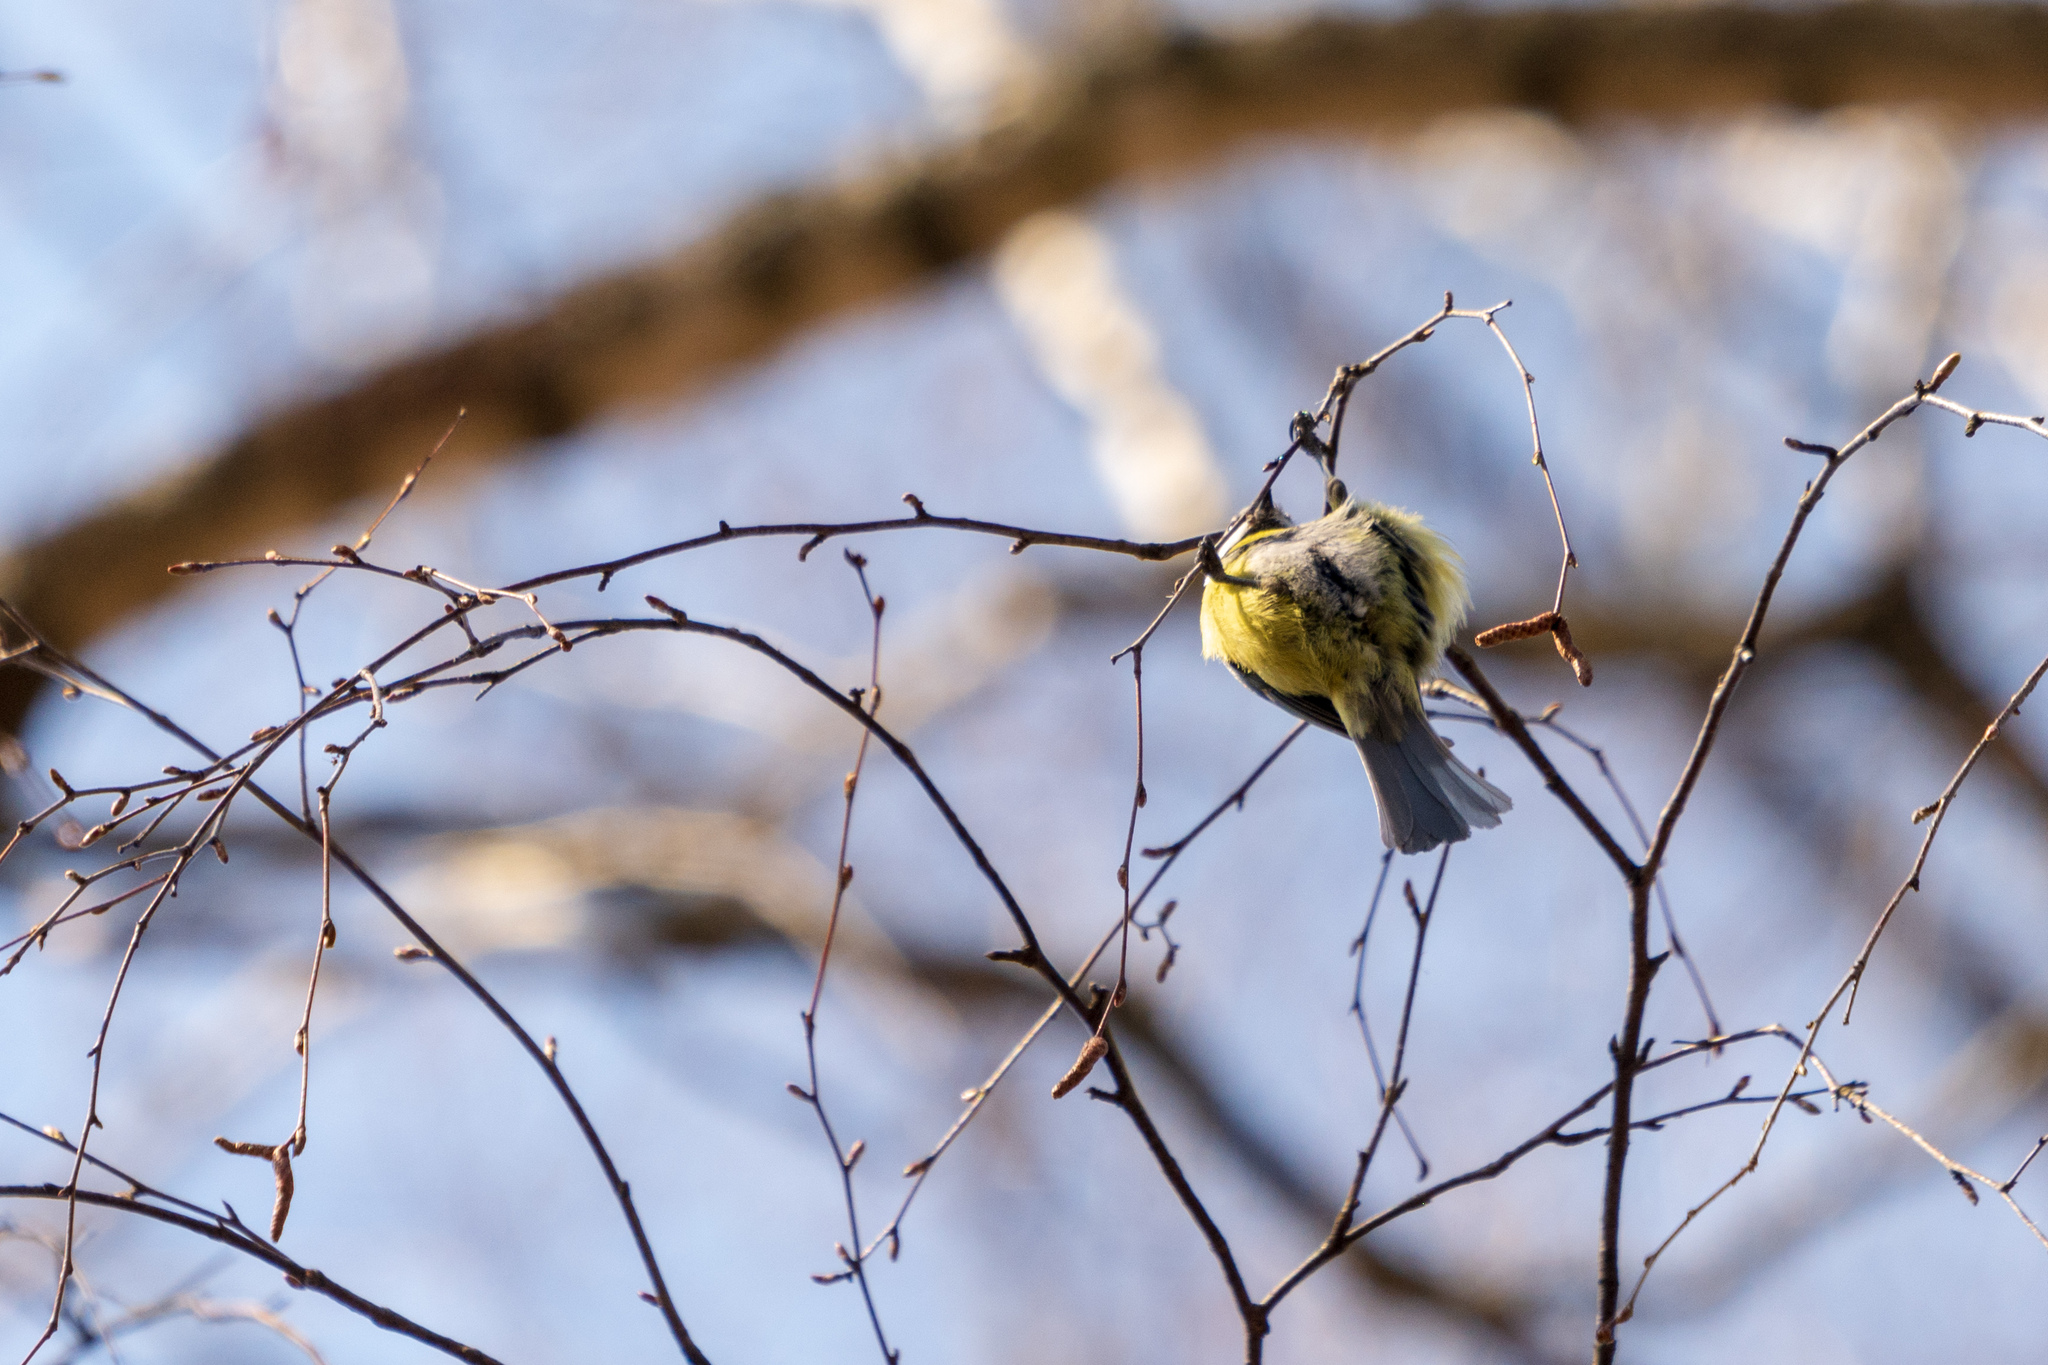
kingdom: Animalia
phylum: Chordata
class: Aves
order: Passeriformes
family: Paridae
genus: Cyanistes
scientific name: Cyanistes caeruleus
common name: Eurasian blue tit
